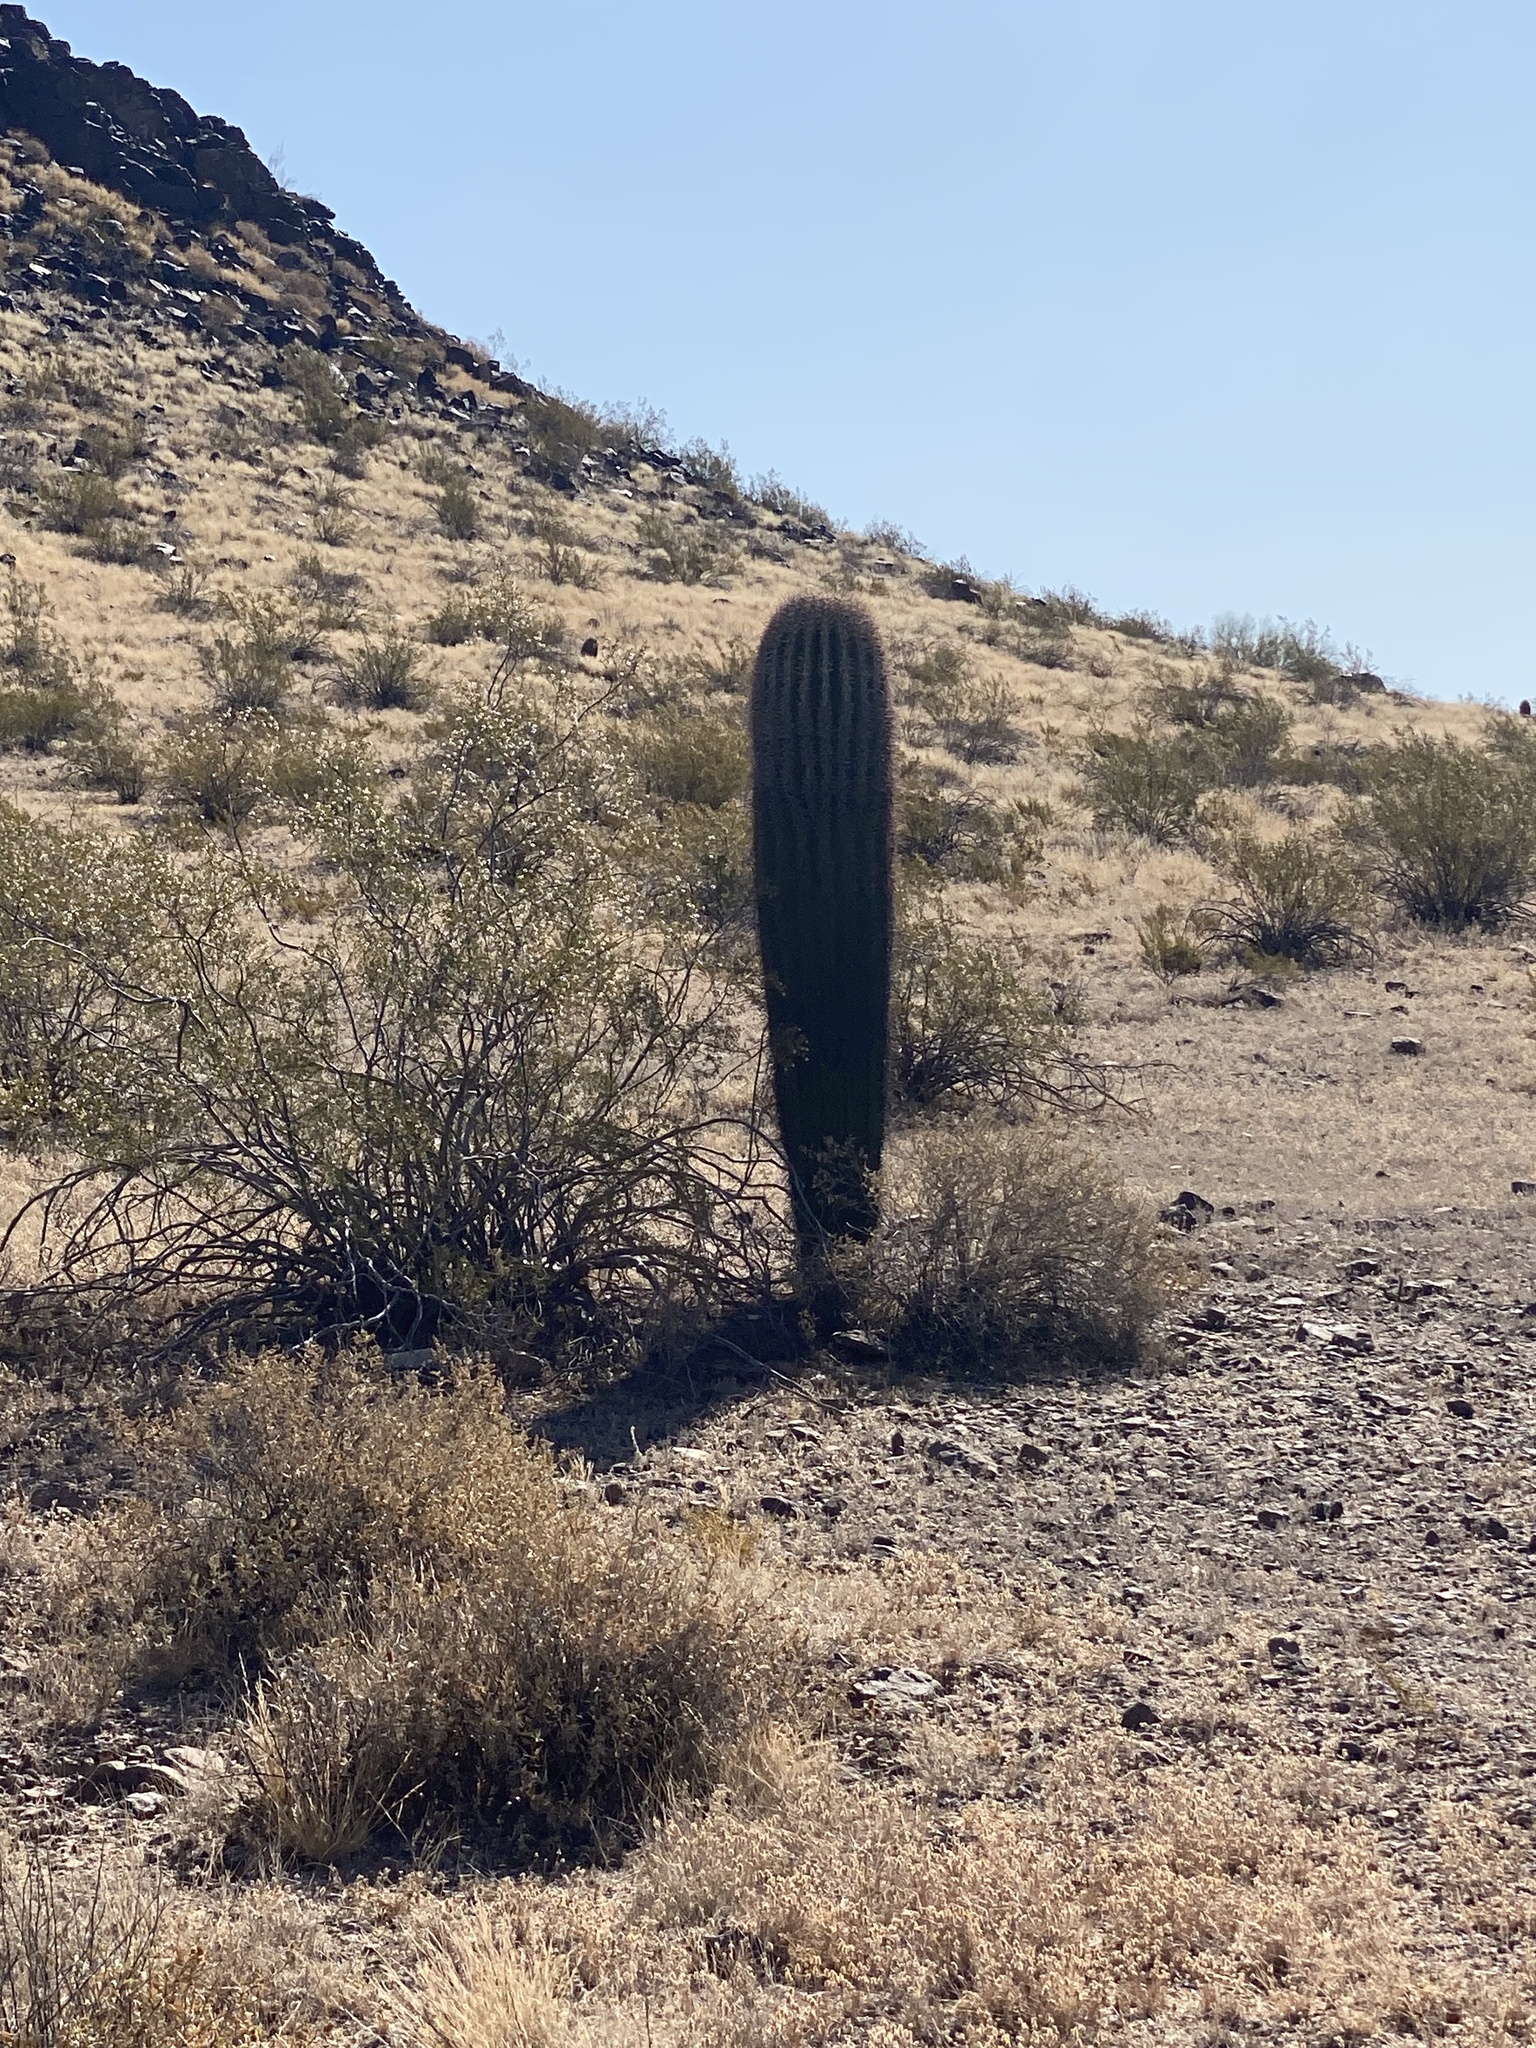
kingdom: Plantae
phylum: Tracheophyta
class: Magnoliopsida
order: Caryophyllales
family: Cactaceae
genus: Carnegiea
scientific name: Carnegiea gigantea
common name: Saguaro
